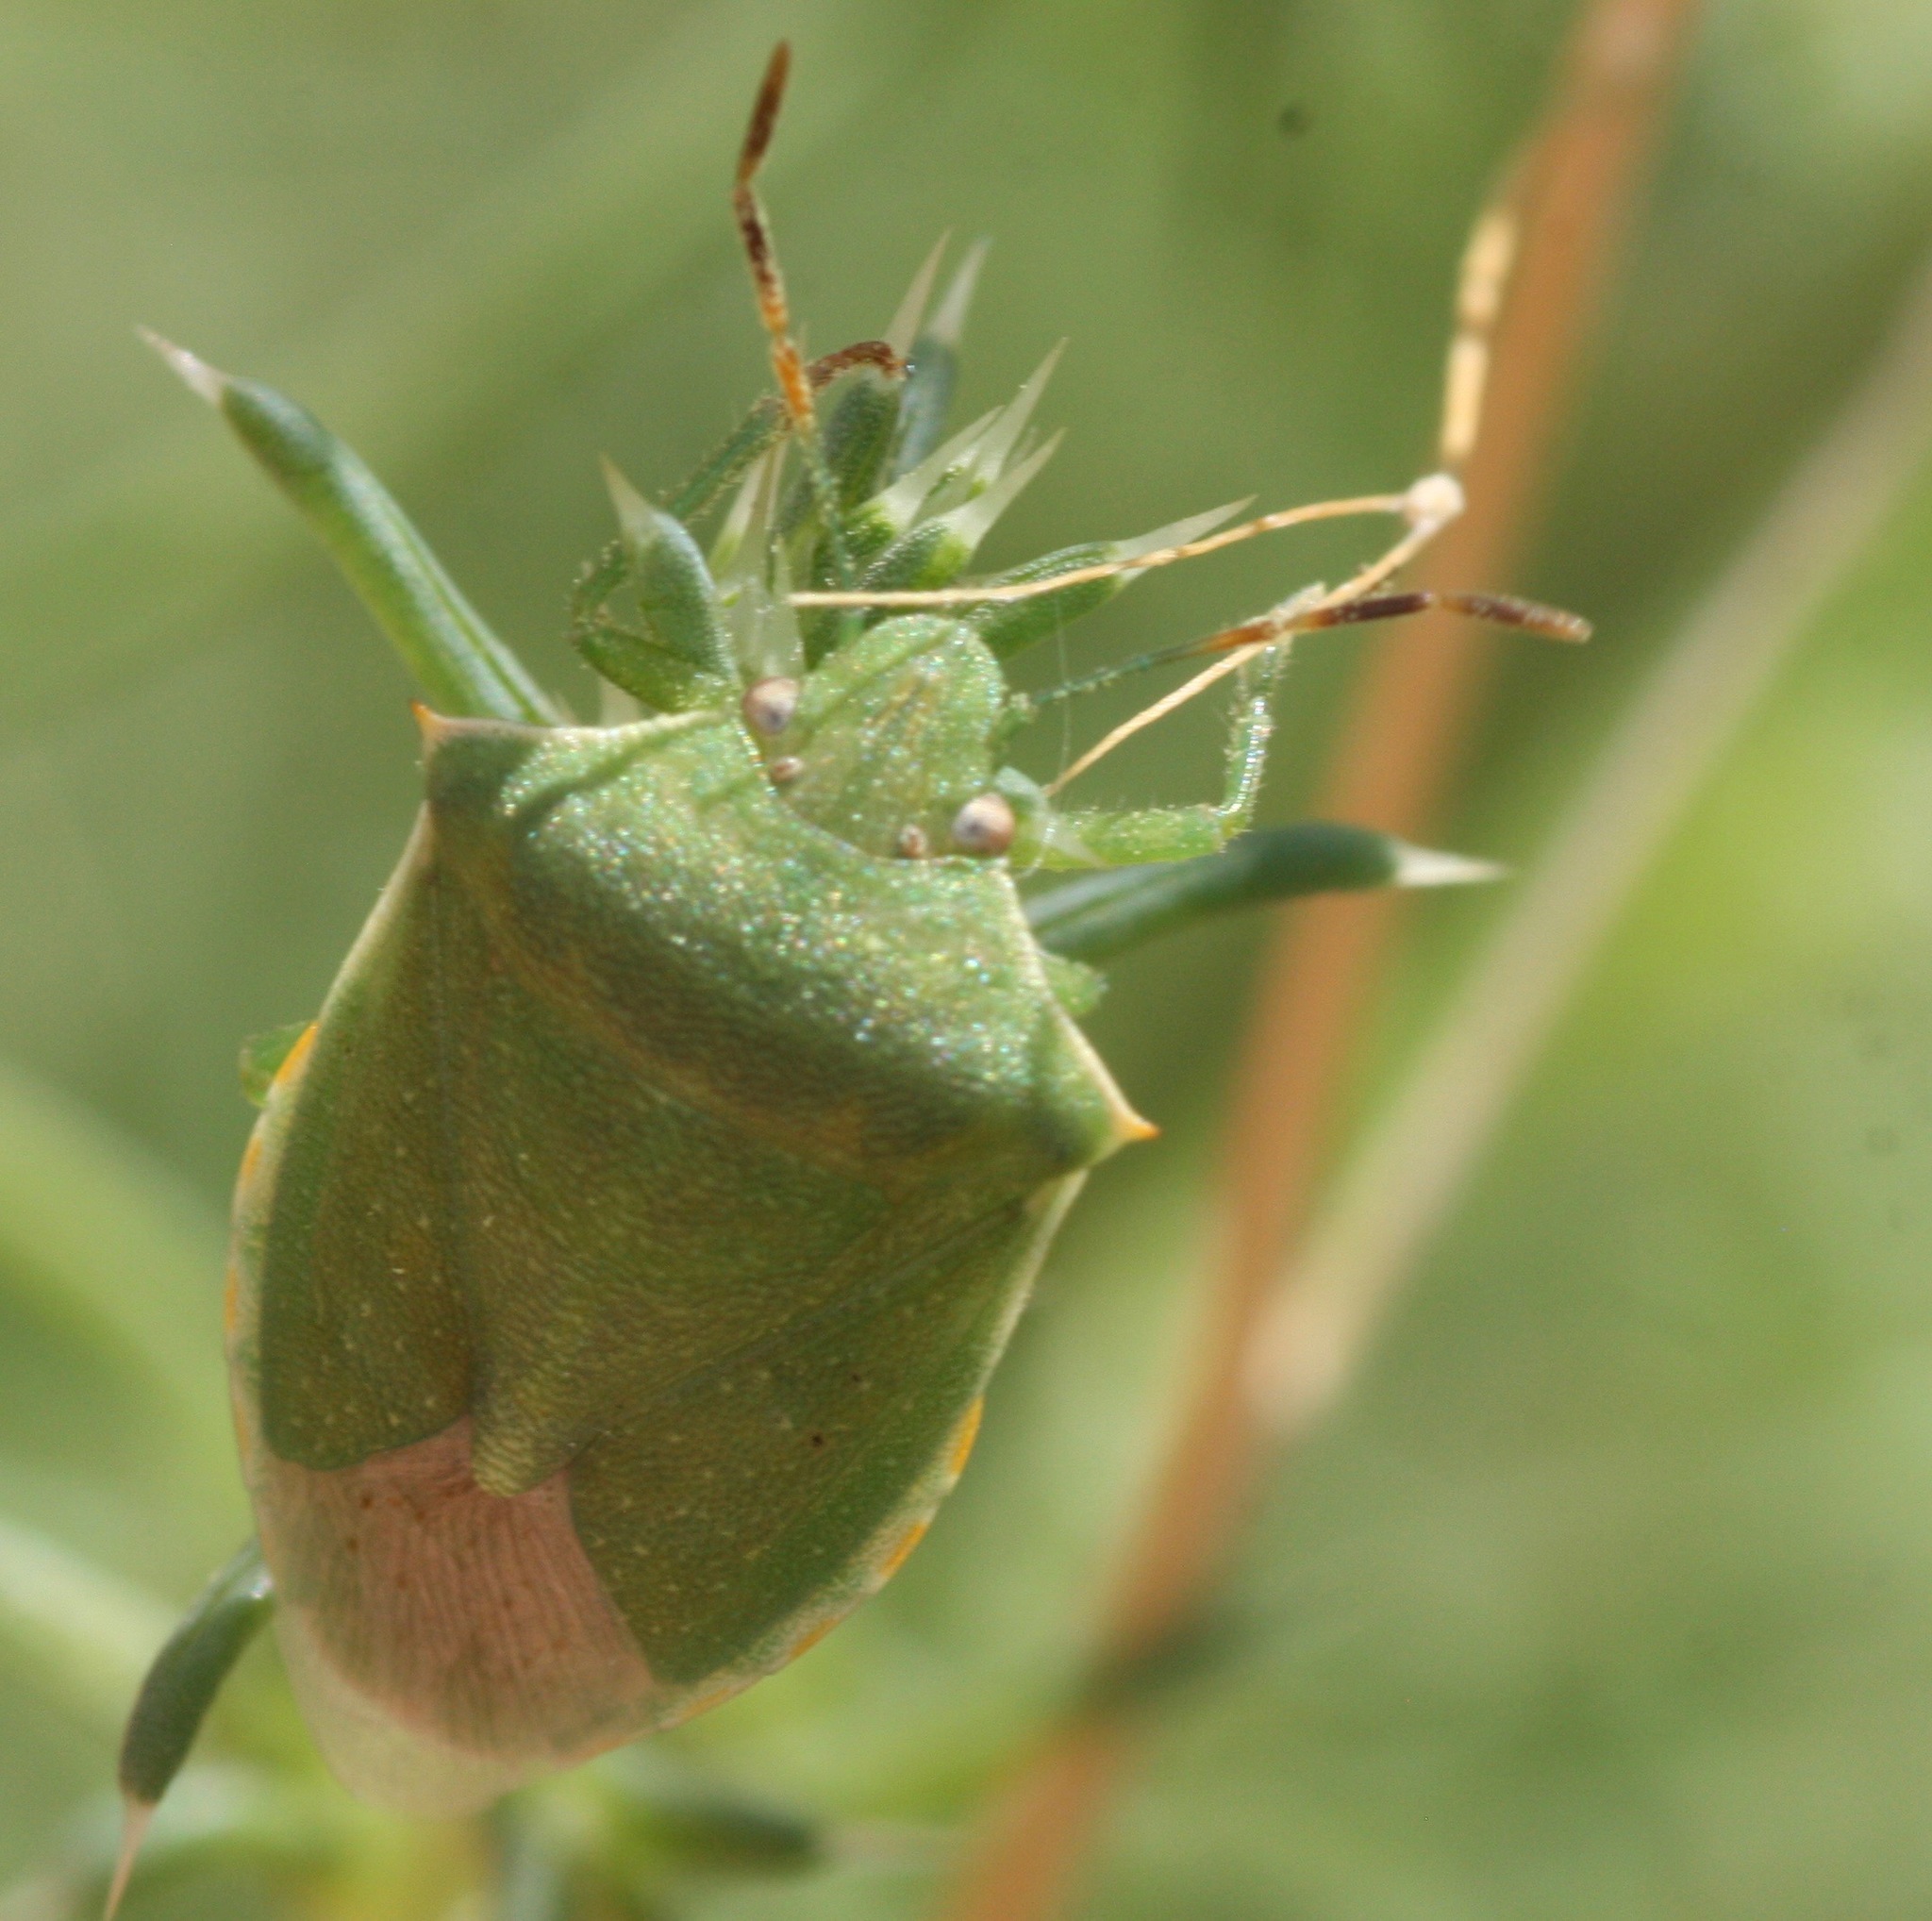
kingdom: Animalia
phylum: Arthropoda
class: Insecta
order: Hemiptera
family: Pentatomidae
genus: Thyanta
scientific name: Thyanta accerra
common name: Stink bug
